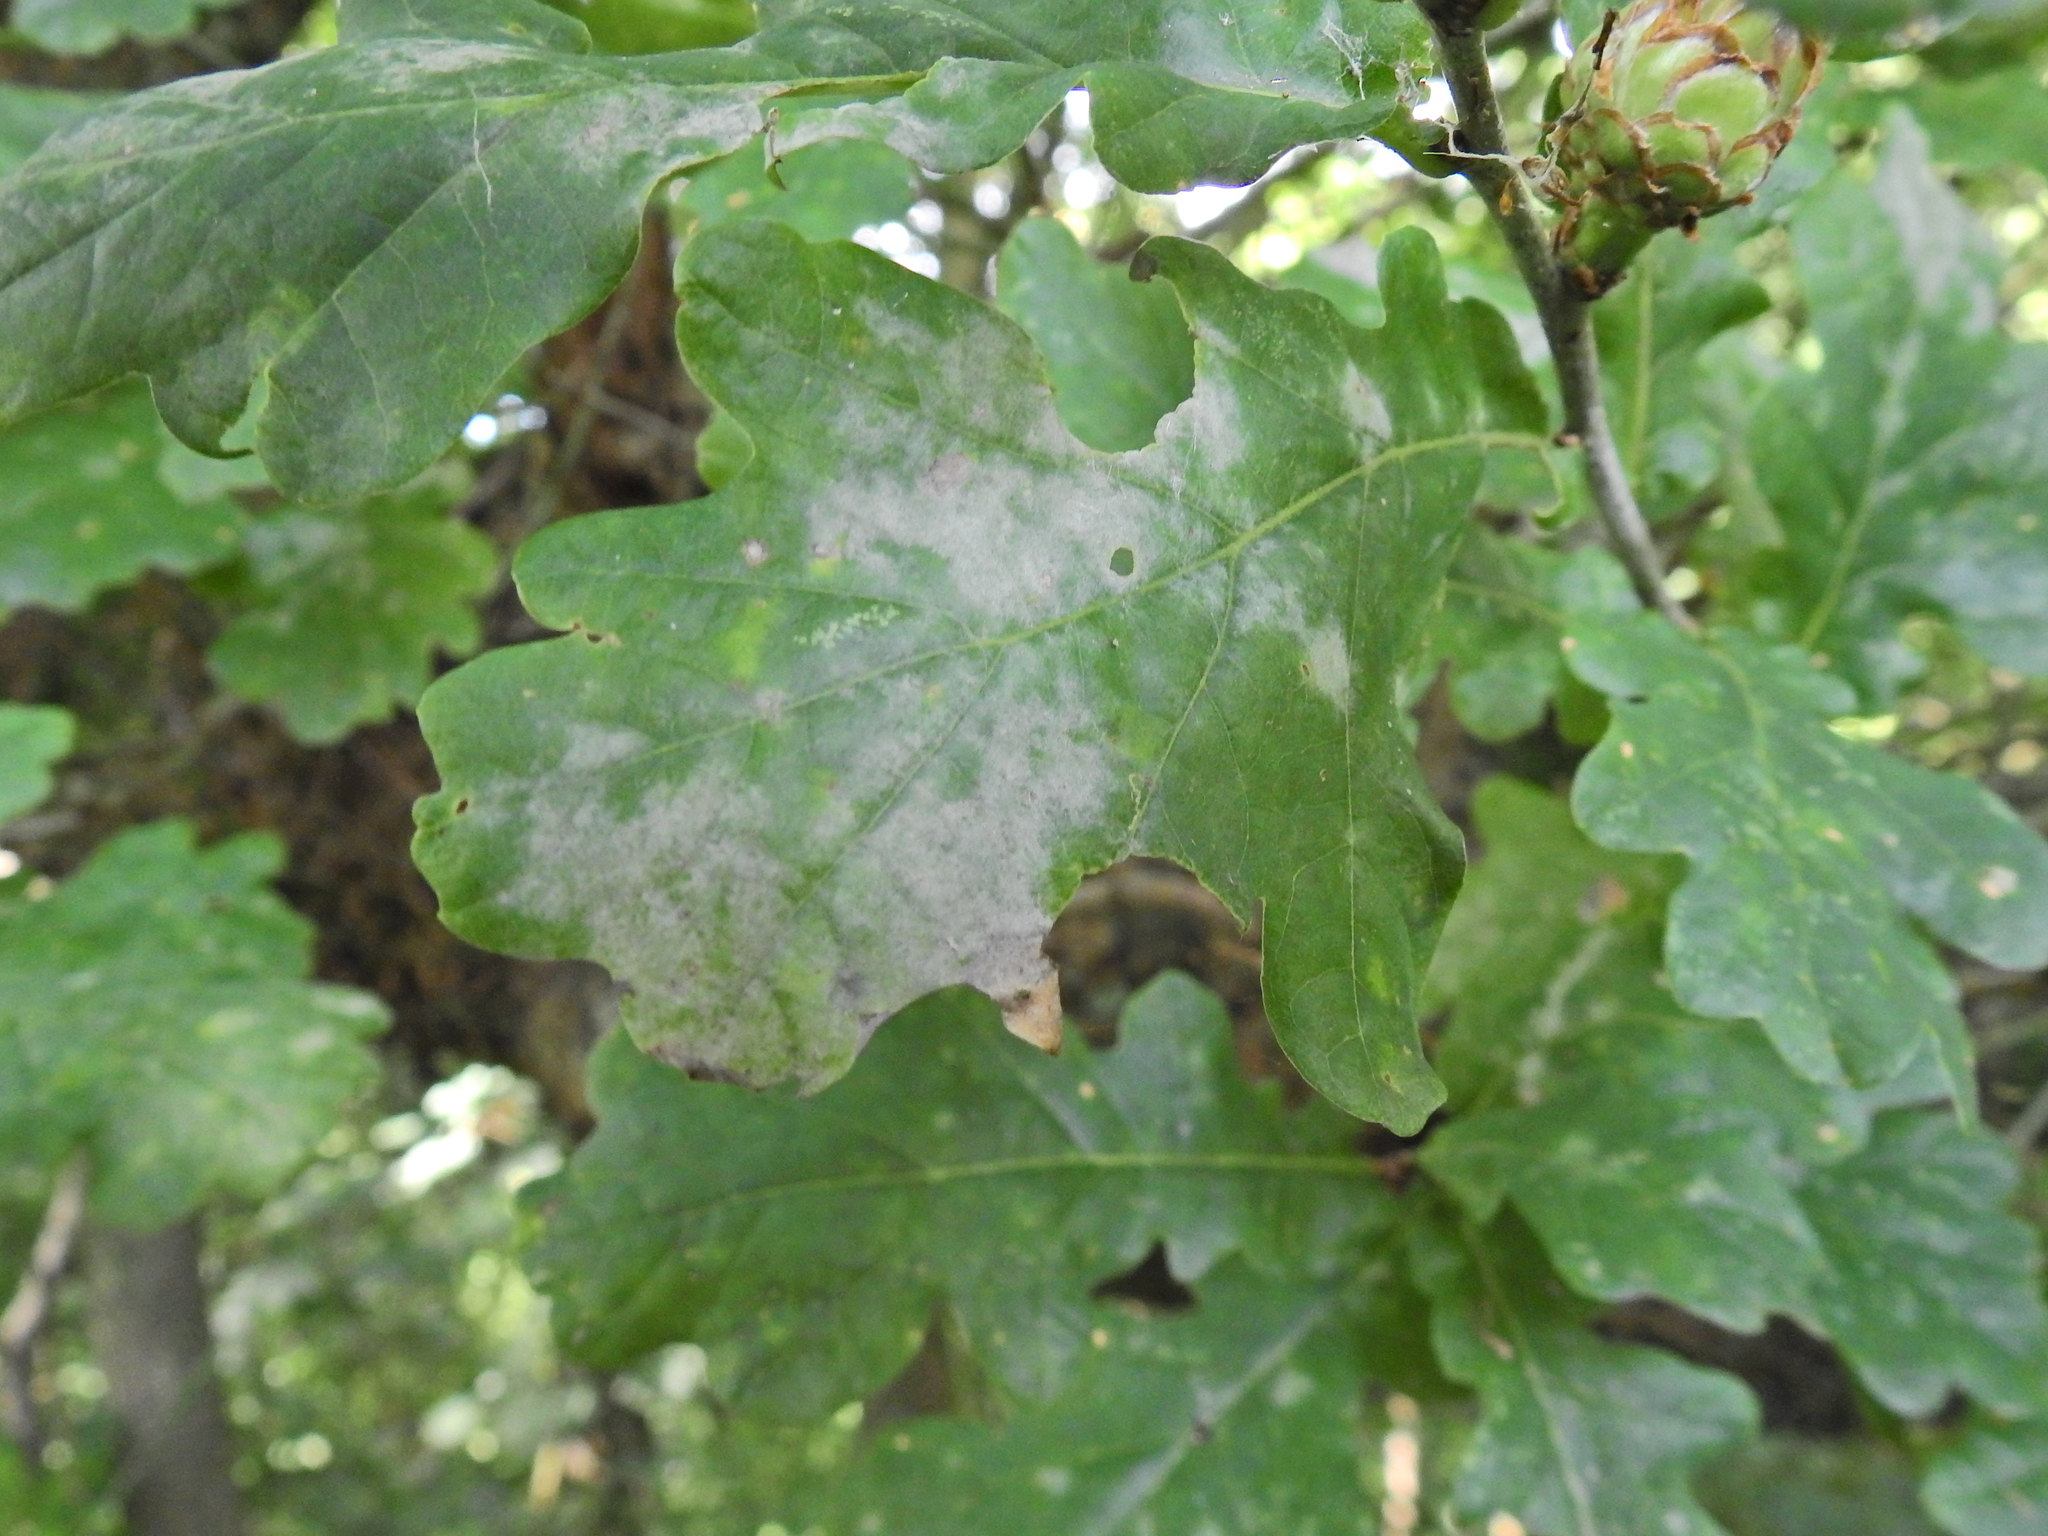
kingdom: Fungi
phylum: Ascomycota
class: Leotiomycetes
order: Helotiales
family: Erysiphaceae
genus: Erysiphe
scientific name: Erysiphe alphitoides
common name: Oak mildew
